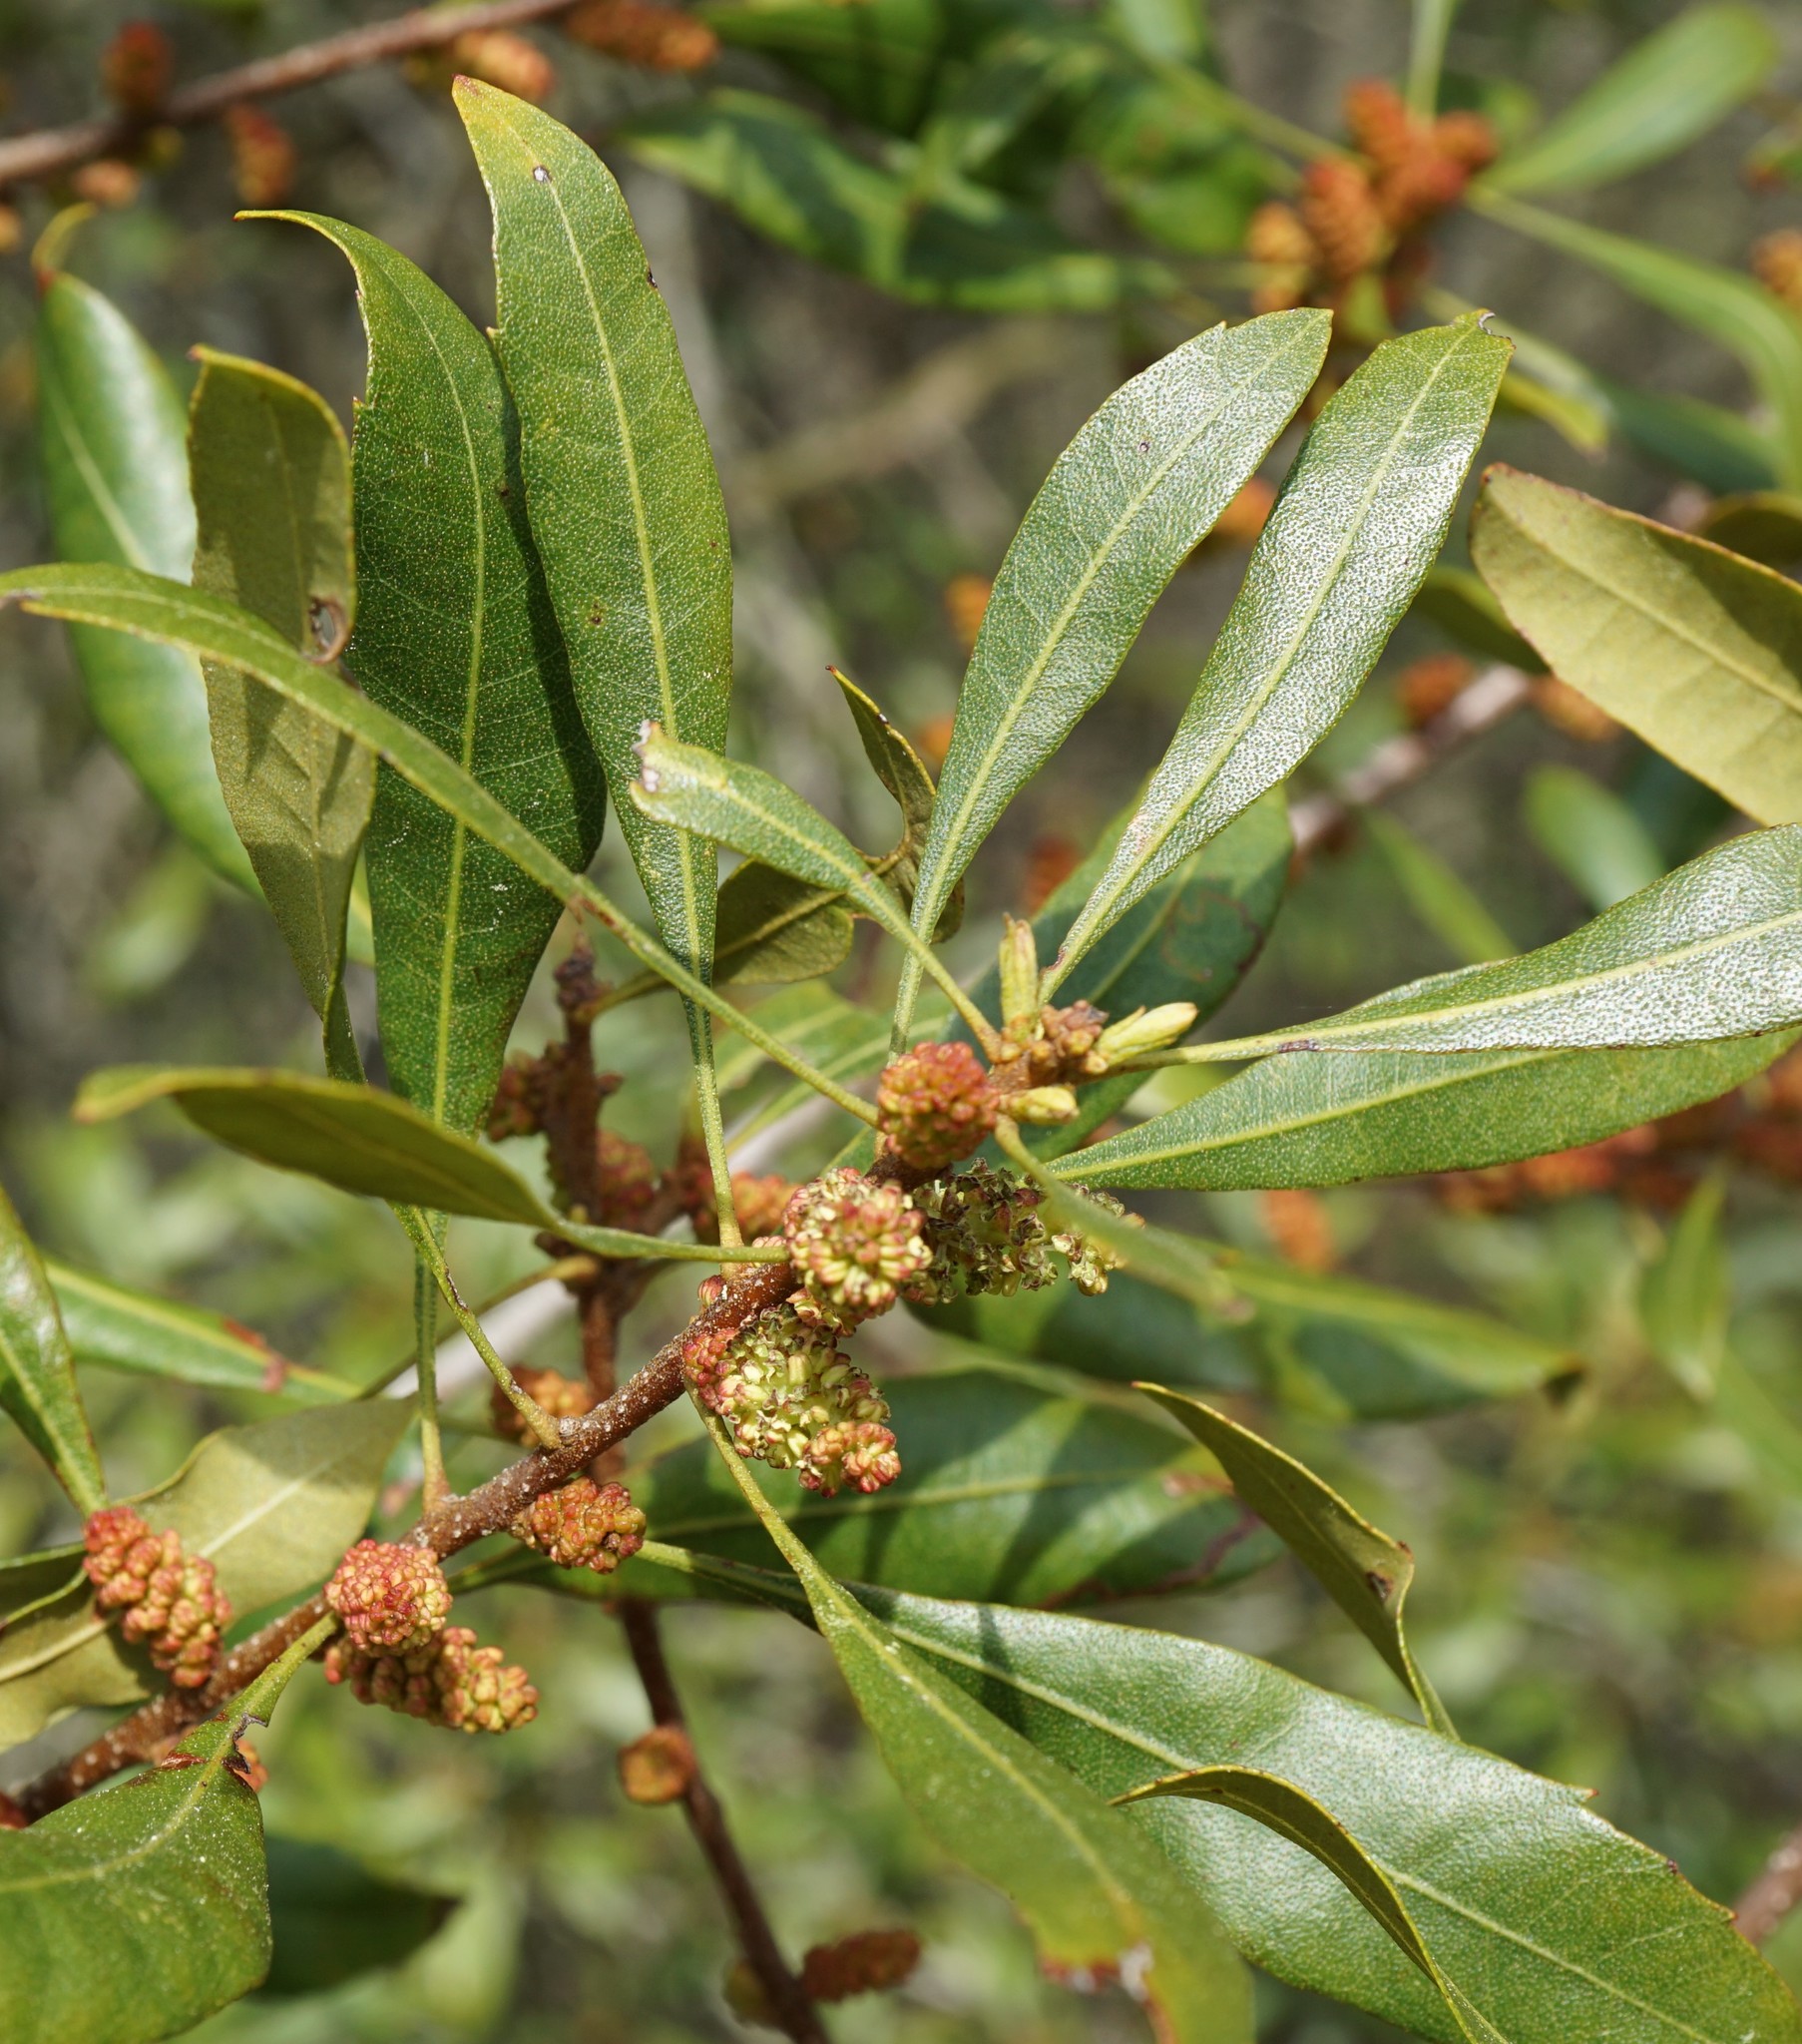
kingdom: Plantae
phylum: Tracheophyta
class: Magnoliopsida
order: Fagales
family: Myricaceae
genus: Morella
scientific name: Morella cerifera
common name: Wax myrtle
